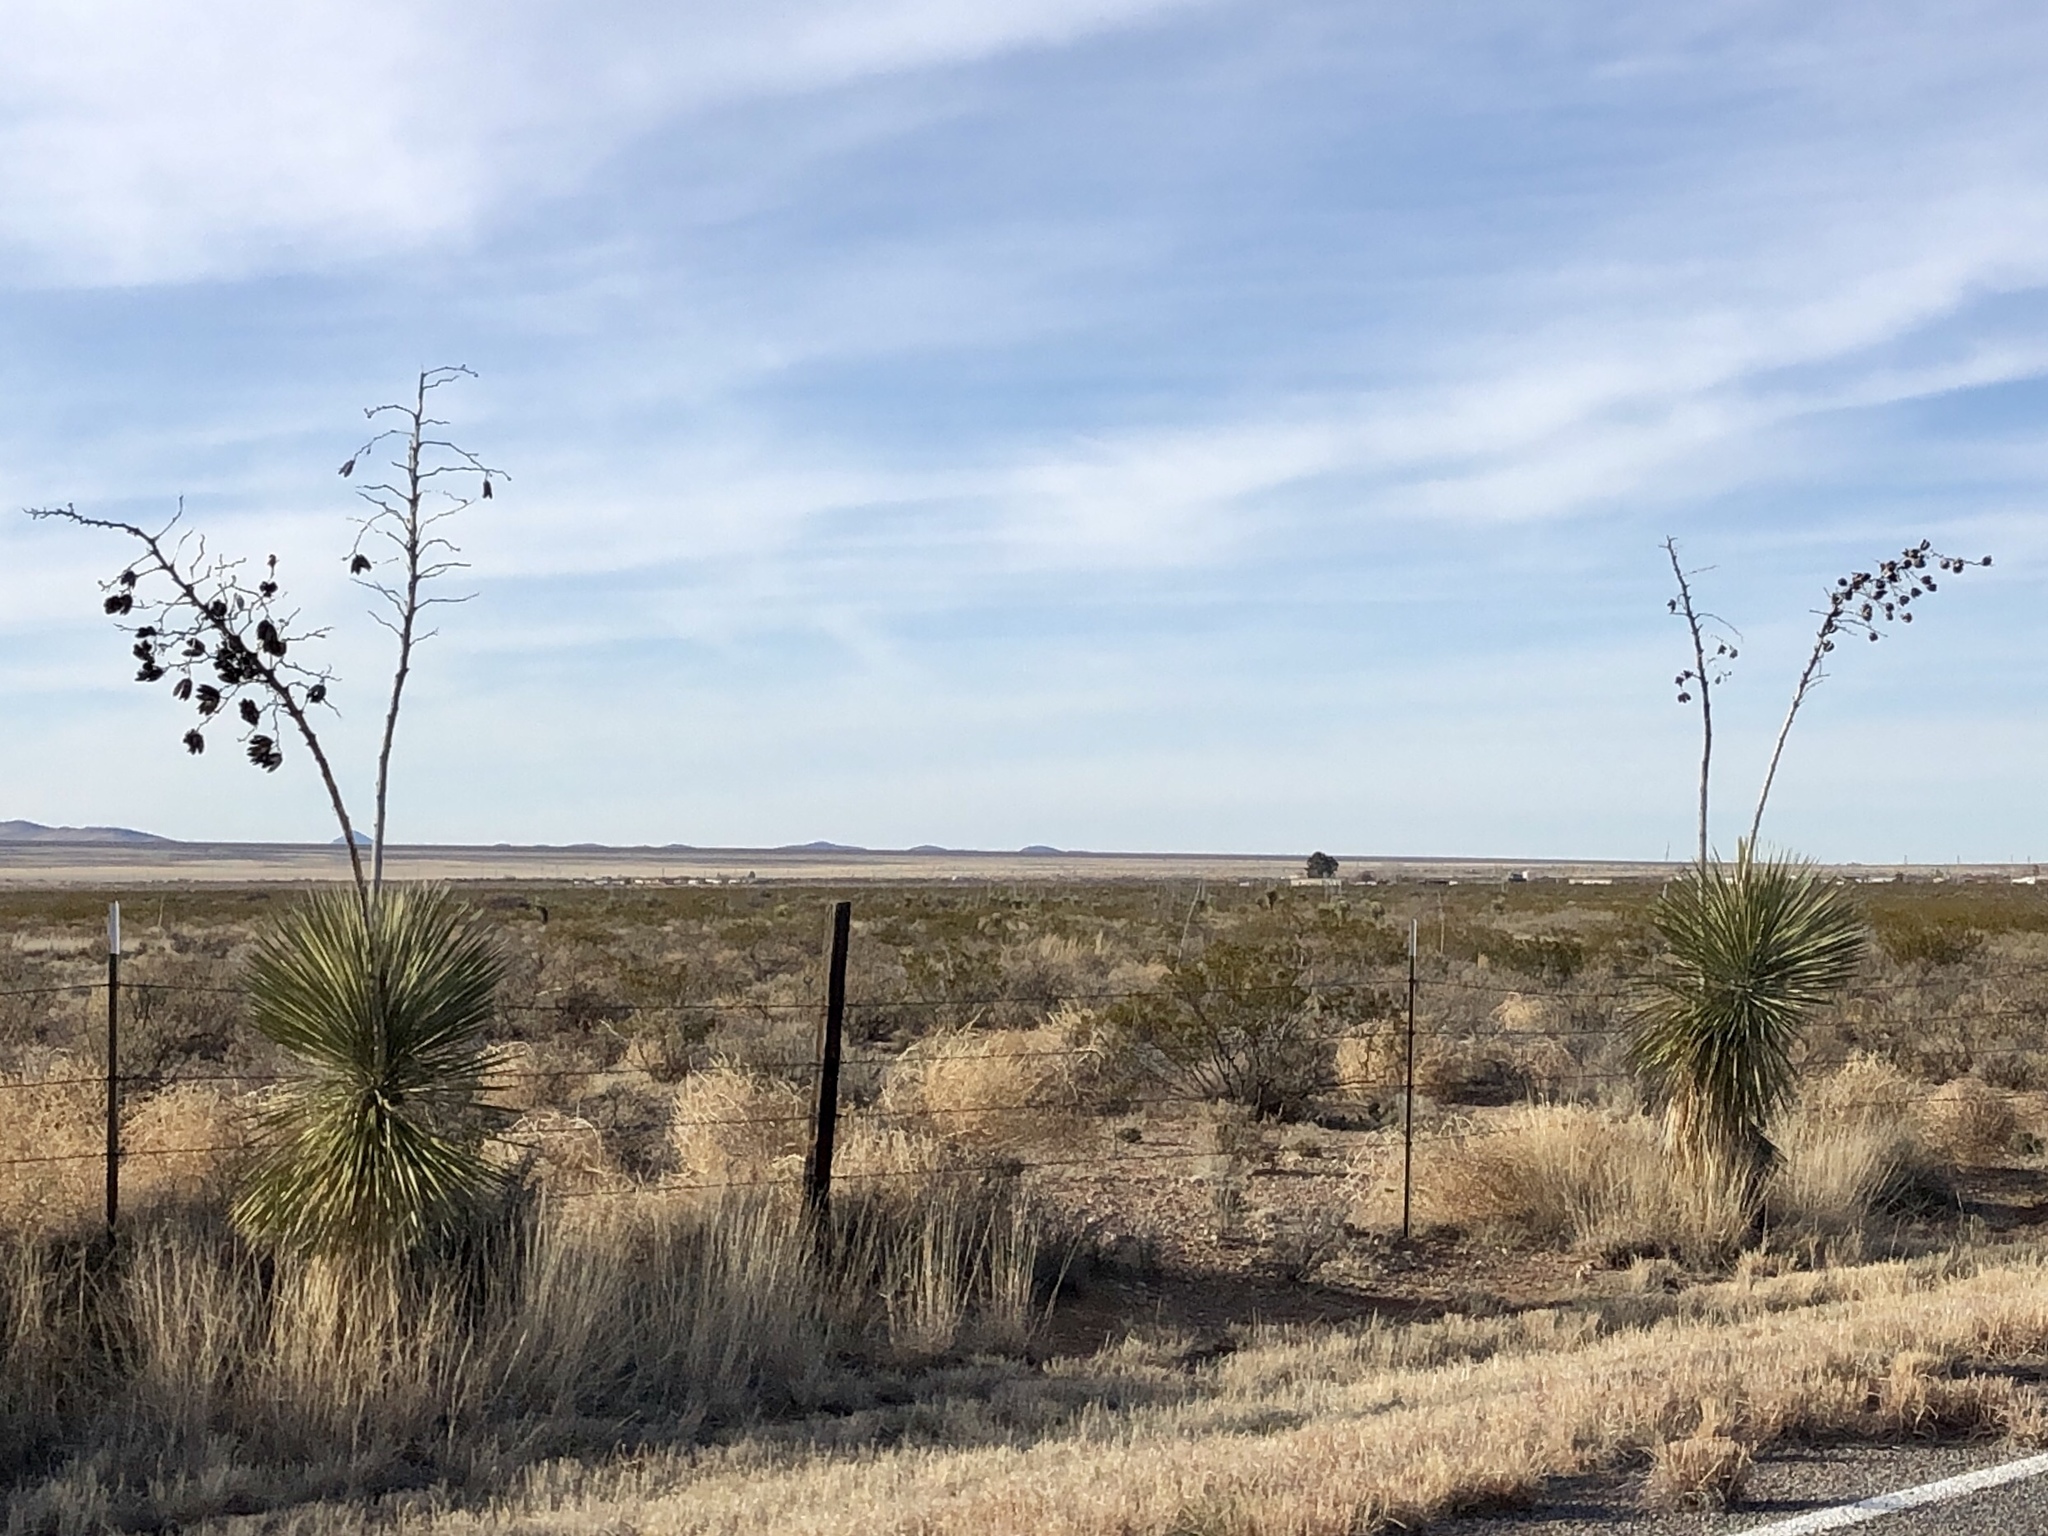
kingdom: Plantae
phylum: Tracheophyta
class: Liliopsida
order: Asparagales
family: Asparagaceae
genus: Yucca
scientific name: Yucca elata
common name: Palmella
